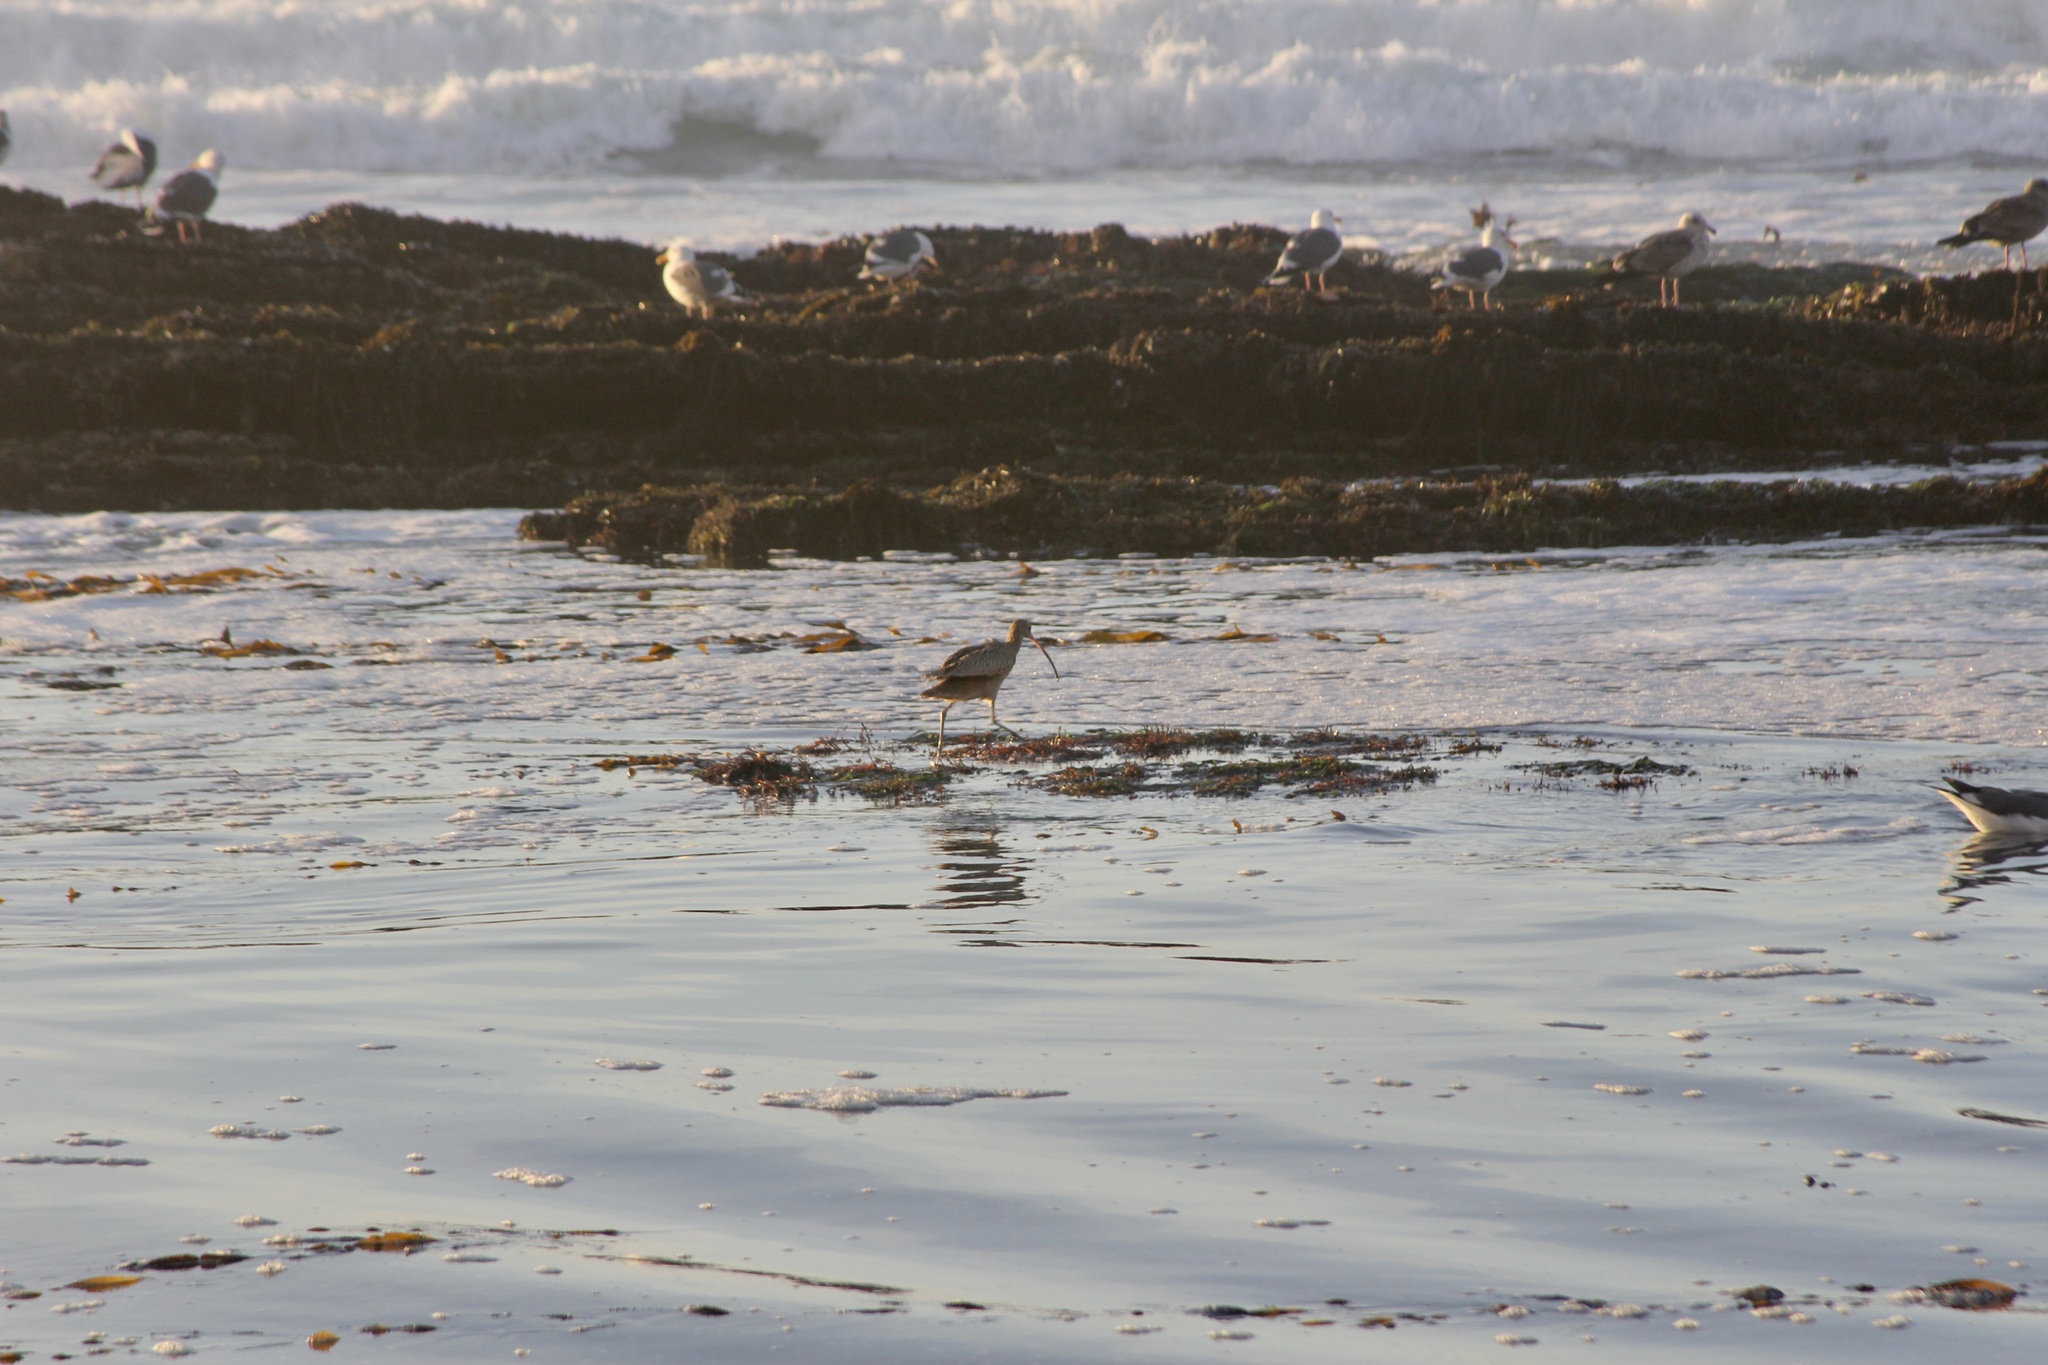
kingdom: Animalia
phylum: Chordata
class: Aves
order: Charadriiformes
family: Scolopacidae
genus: Numenius
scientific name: Numenius americanus
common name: Long-billed curlew
